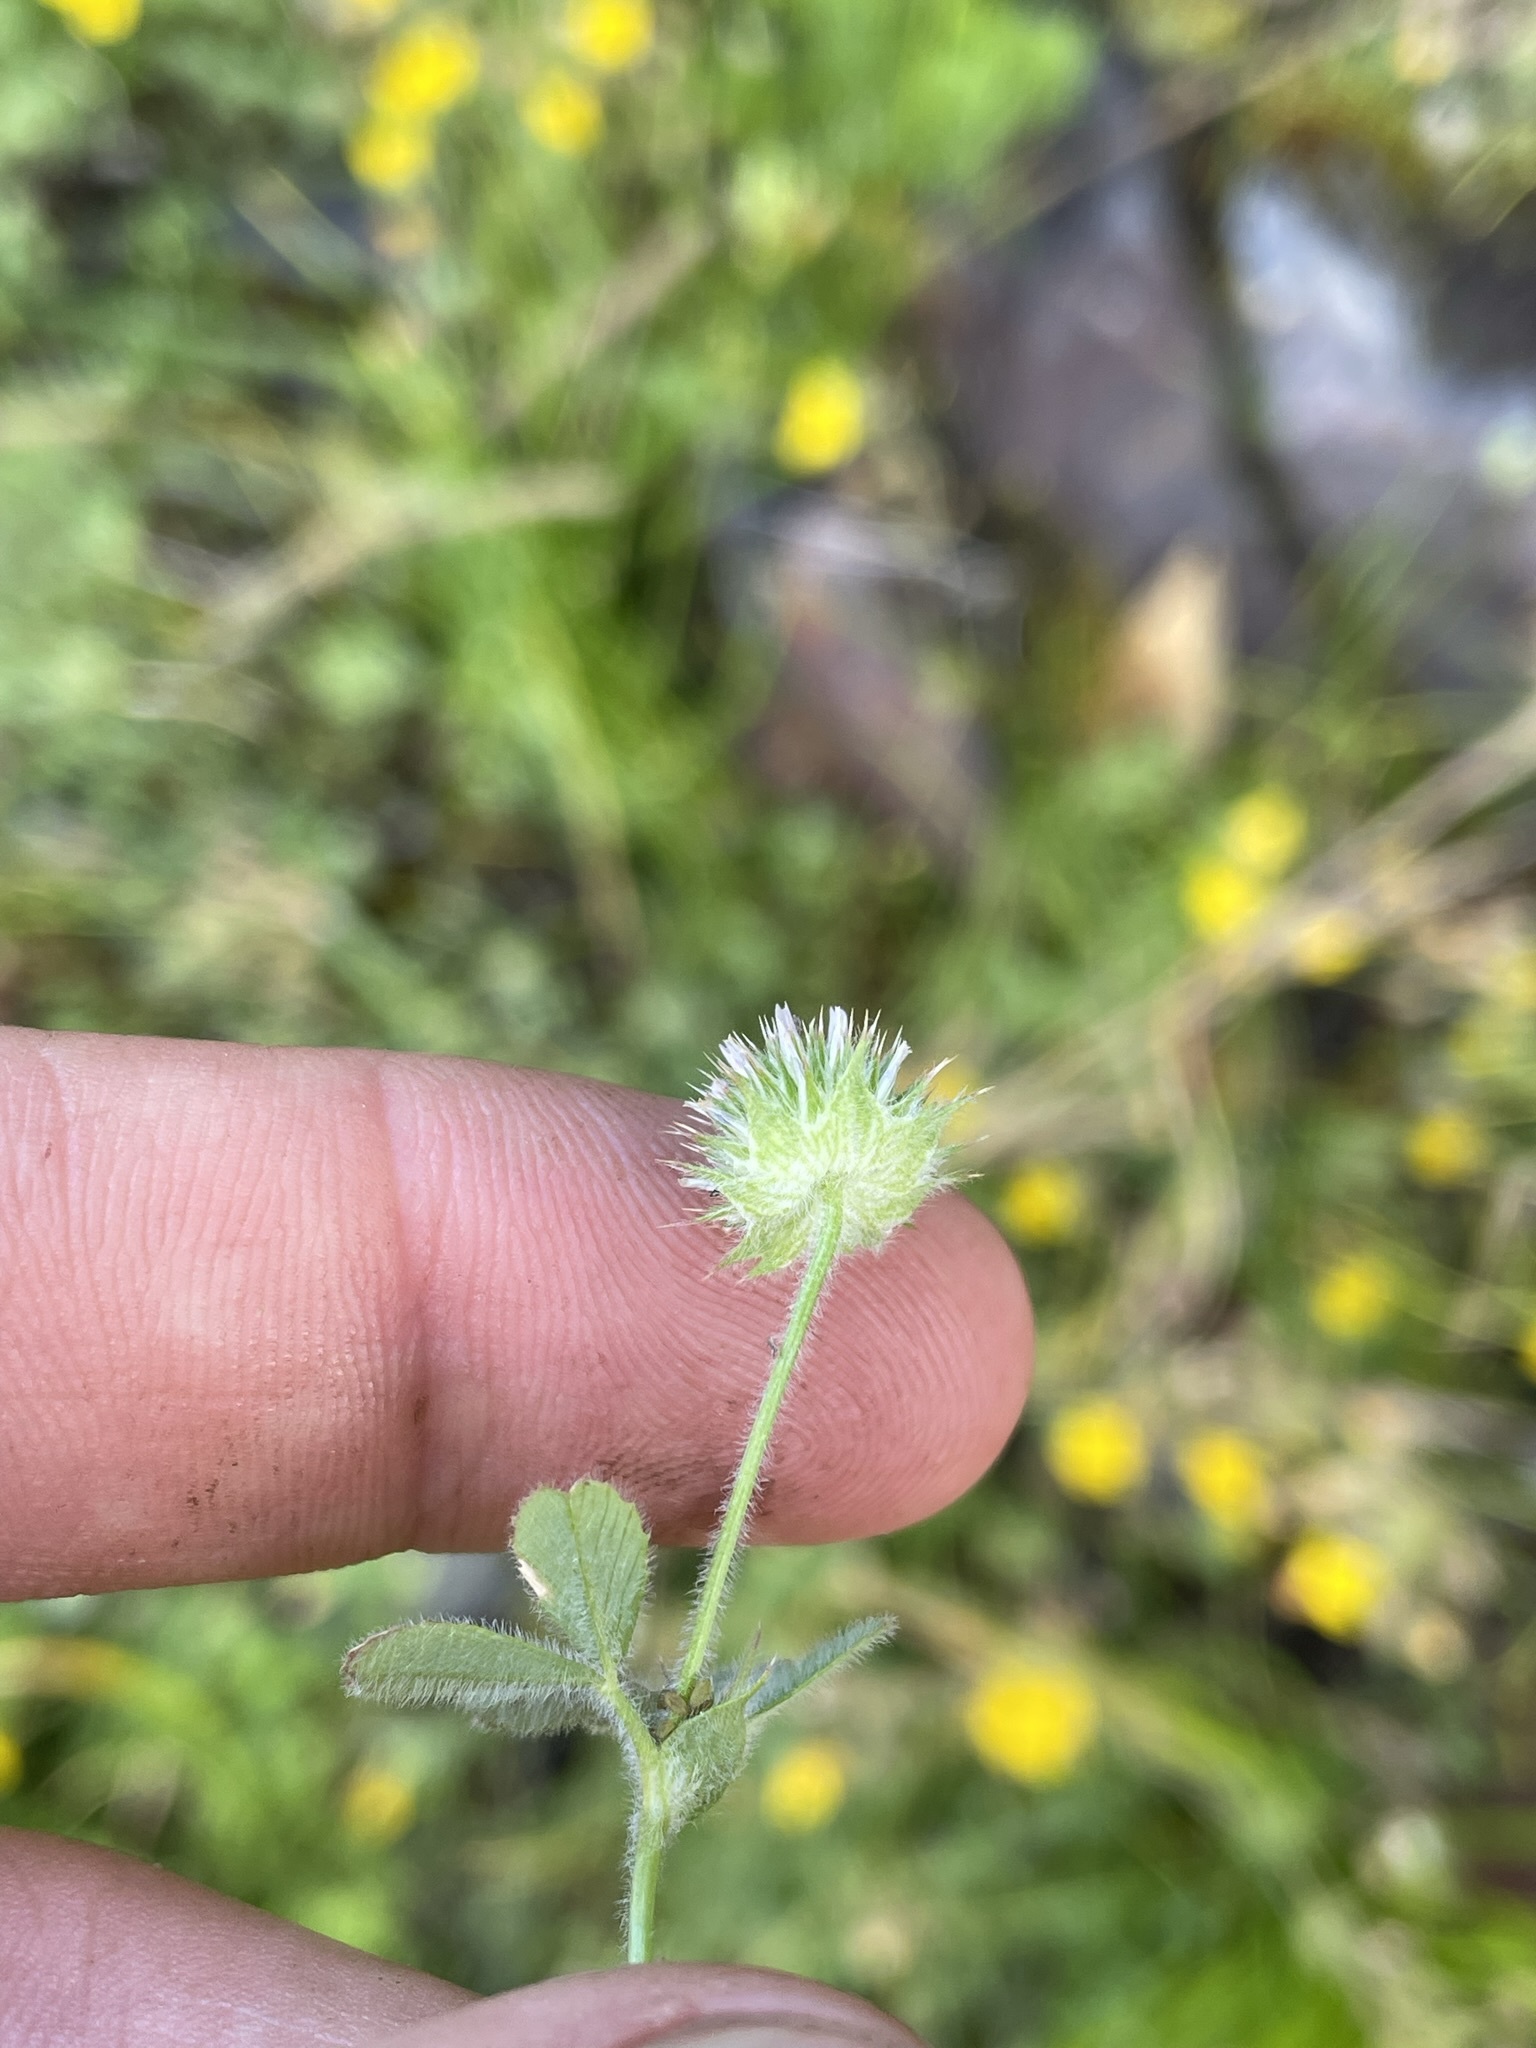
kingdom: Plantae
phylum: Tracheophyta
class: Magnoliopsida
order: Fabales
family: Fabaceae
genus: Trifolium
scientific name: Trifolium microcephalum
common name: Maiden clover
